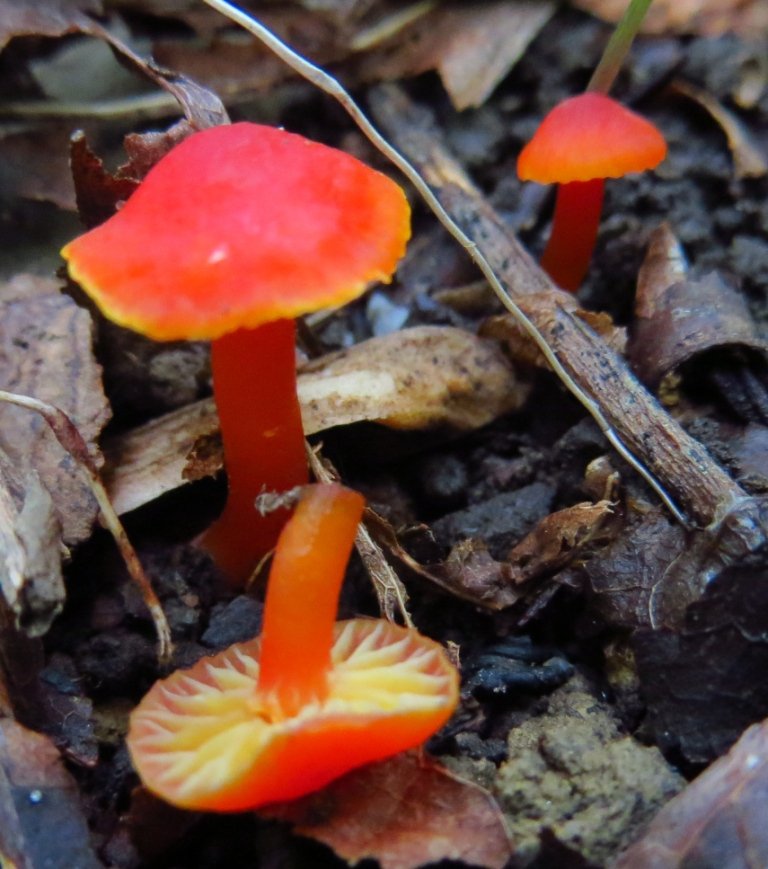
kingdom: Fungi
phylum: Basidiomycota
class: Agaricomycetes
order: Agaricales
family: Hygrophoraceae
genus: Hygrocybe
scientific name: Hygrocybe coccinea
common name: Scarlet hood
